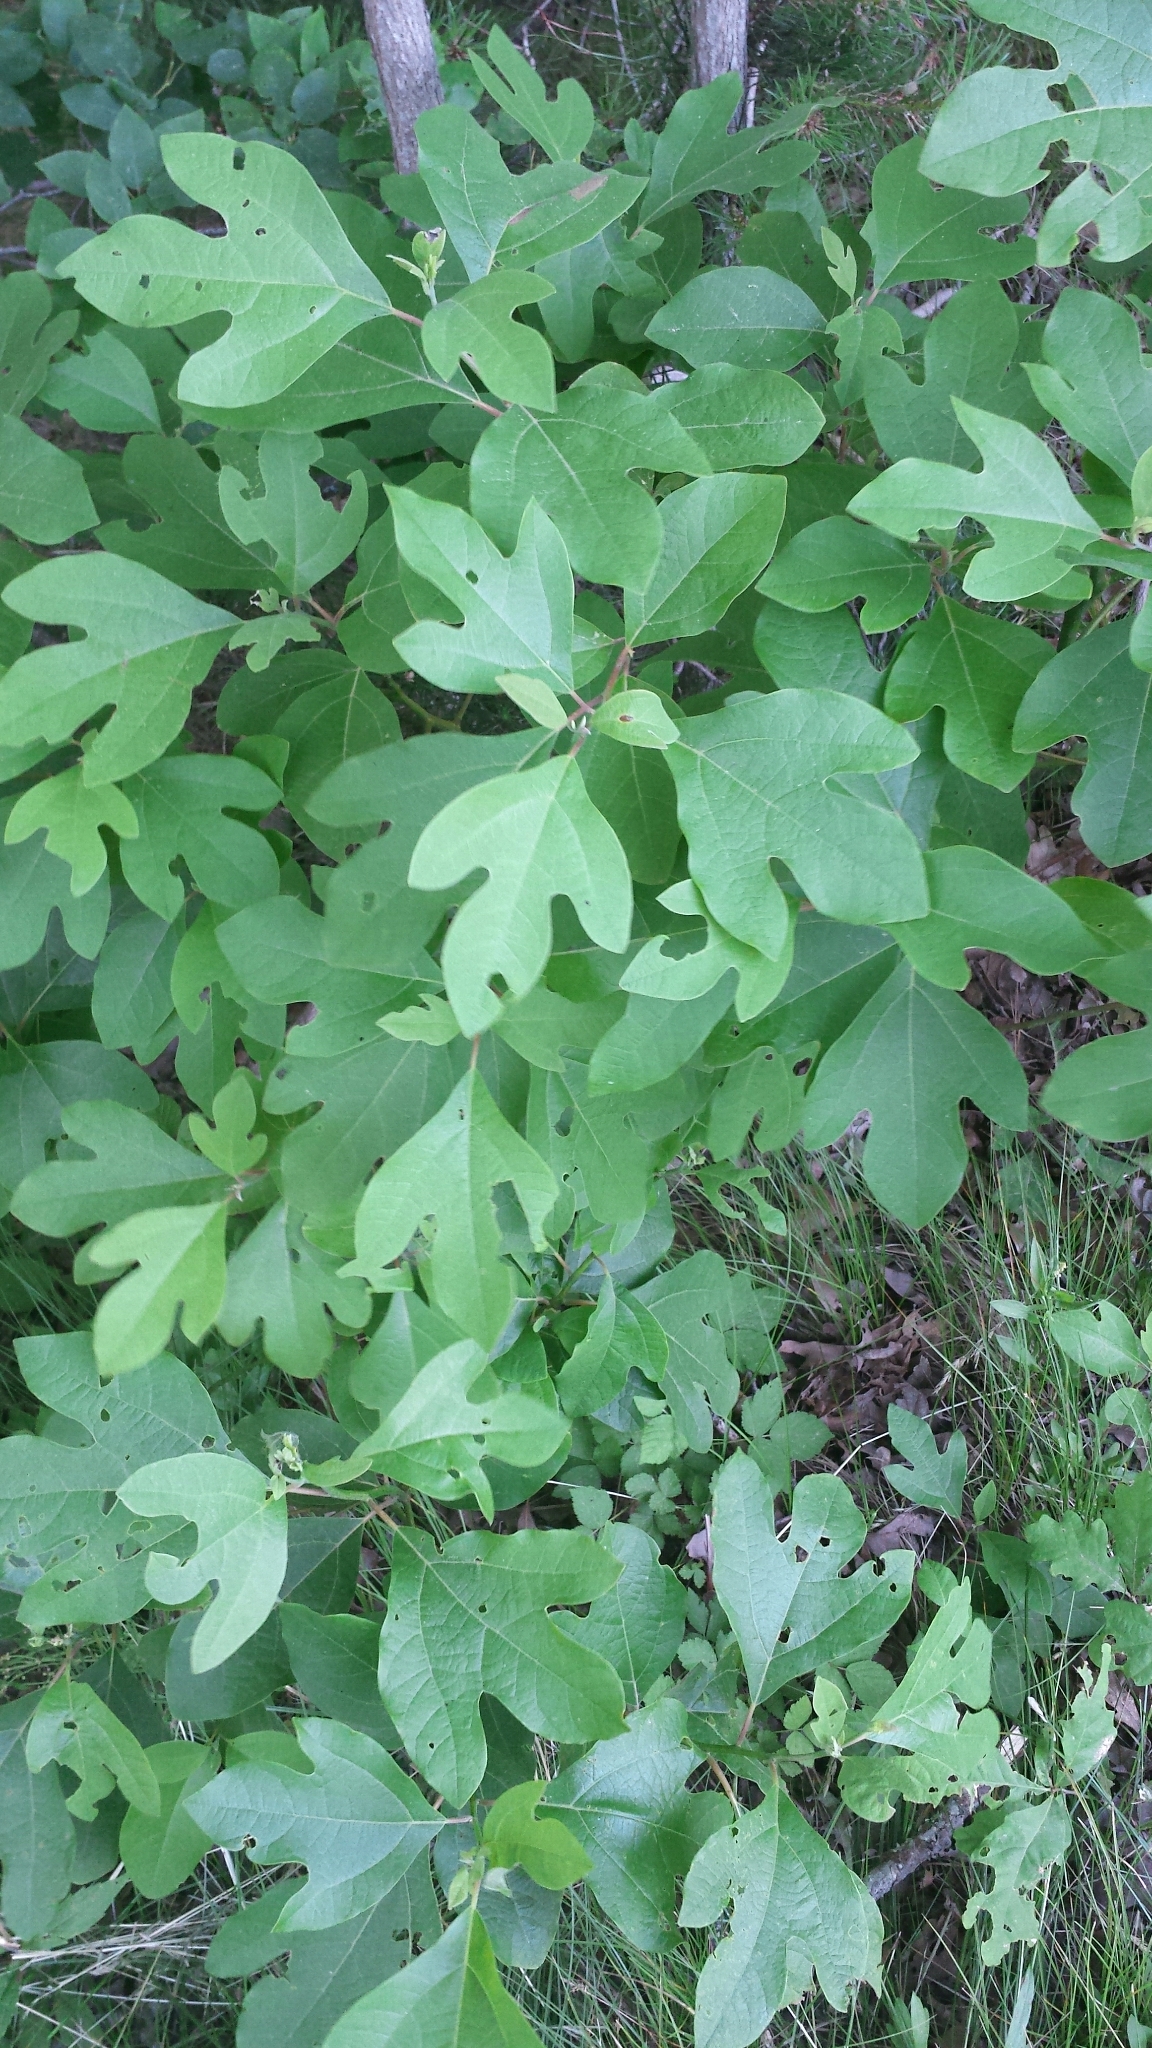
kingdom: Plantae
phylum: Tracheophyta
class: Magnoliopsida
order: Laurales
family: Lauraceae
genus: Sassafras
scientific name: Sassafras albidum
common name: Sassafras
